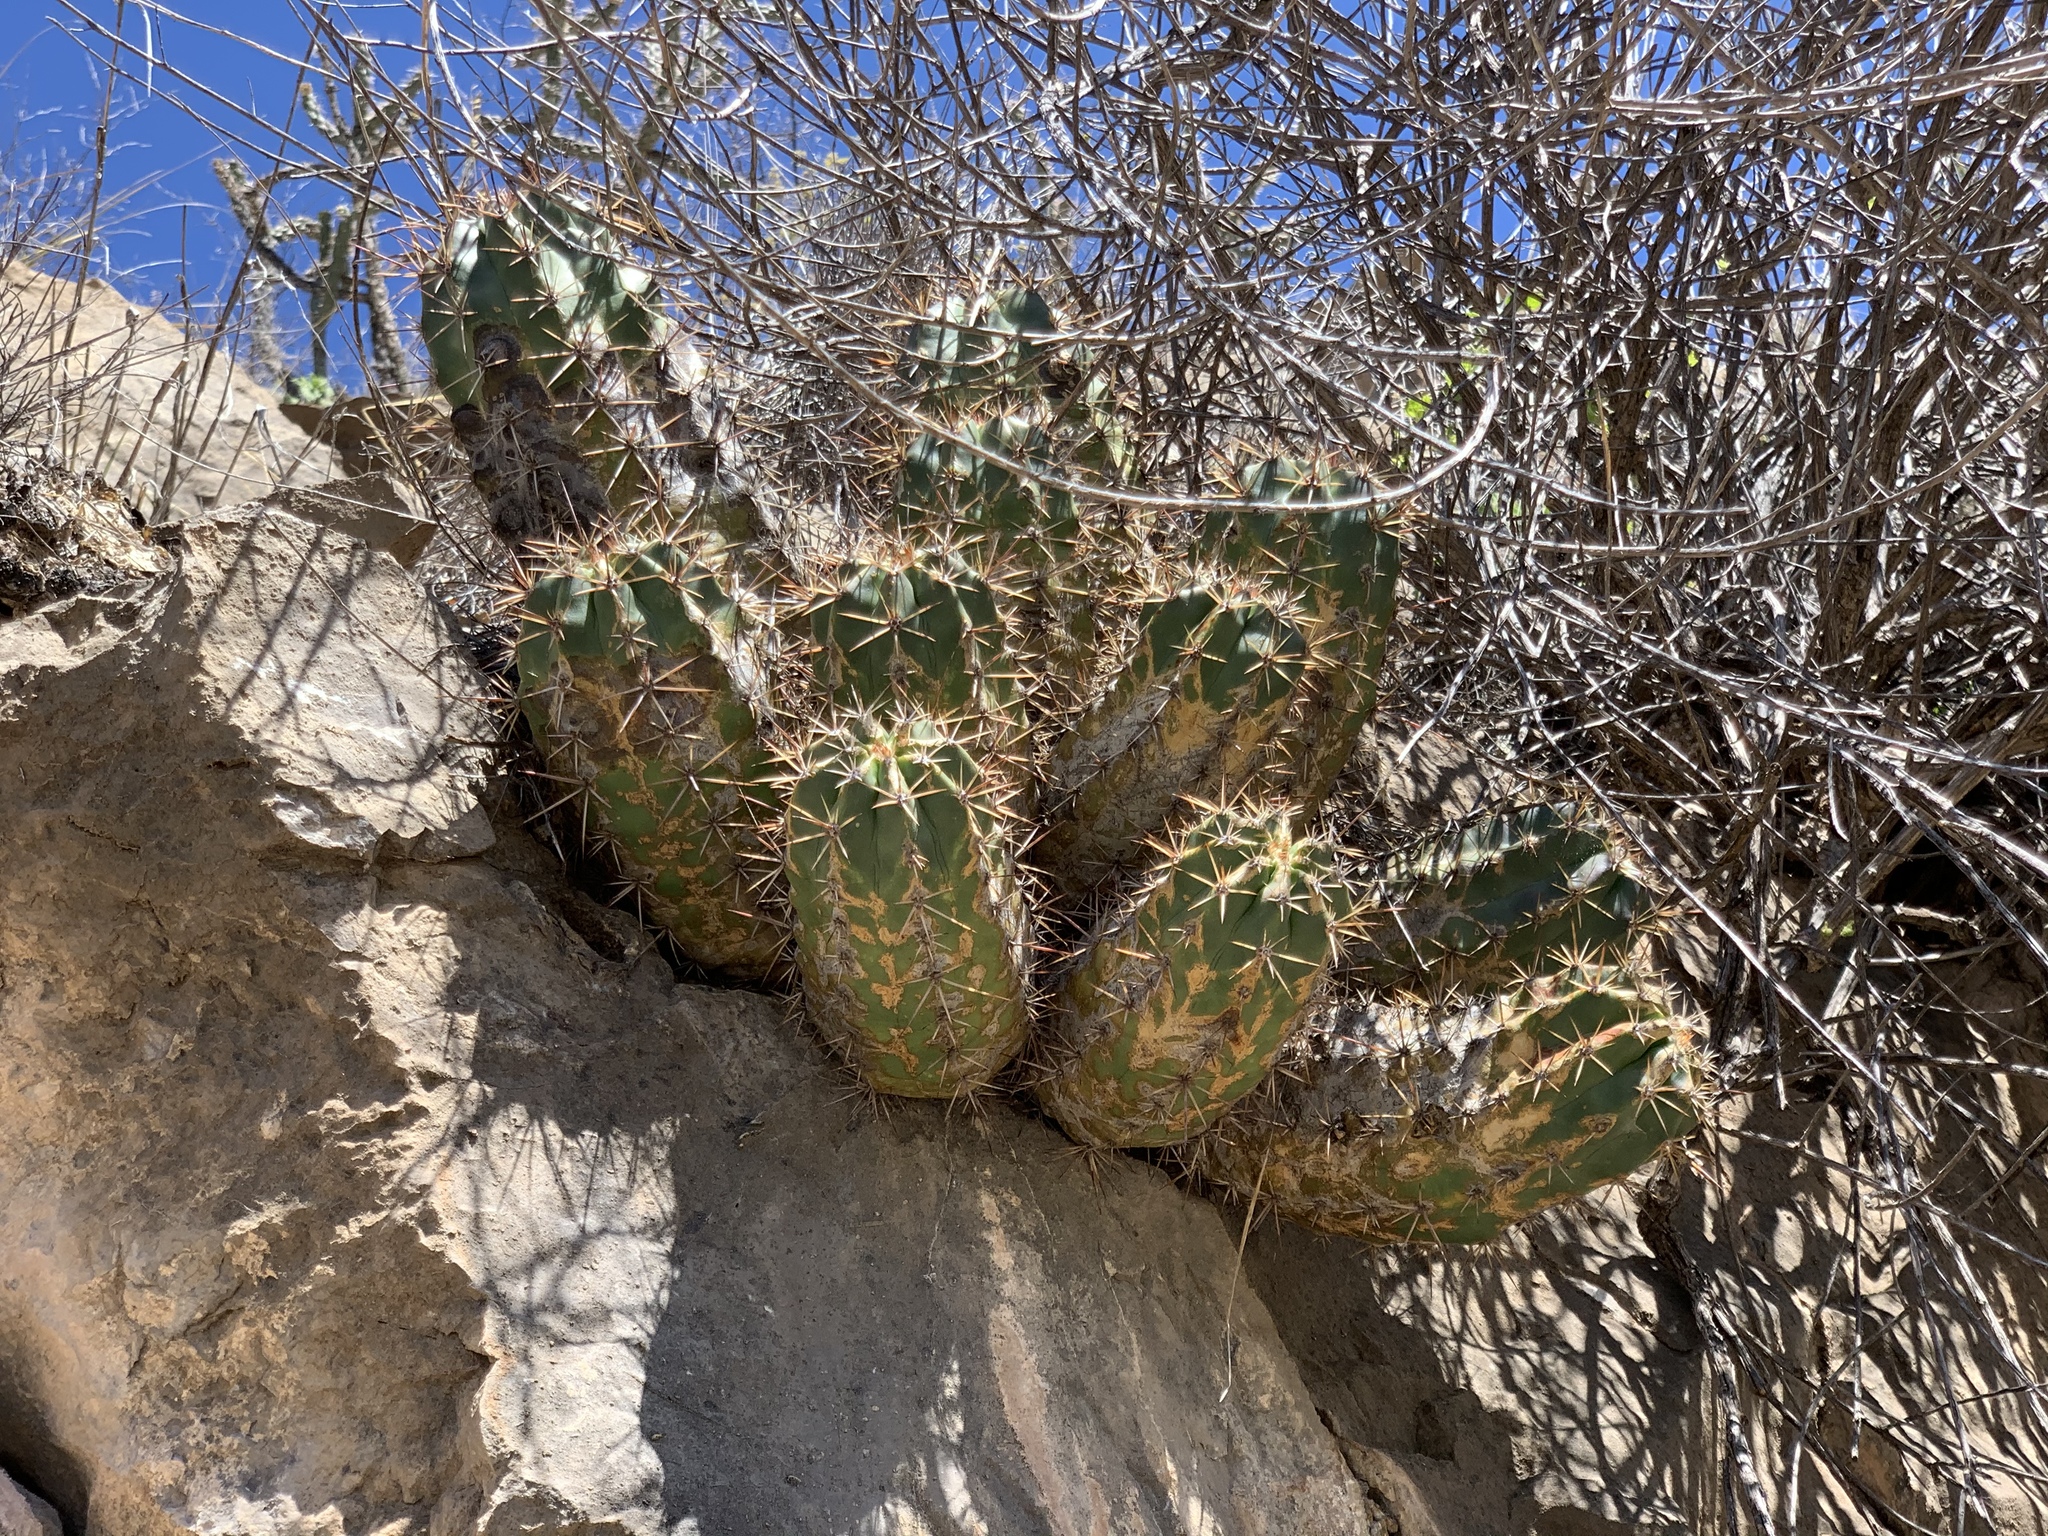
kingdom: Plantae
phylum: Tracheophyta
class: Magnoliopsida
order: Caryophyllales
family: Cactaceae
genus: Echinocereus
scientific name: Echinocereus coccineus
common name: Scarlet hedgehog cactus
